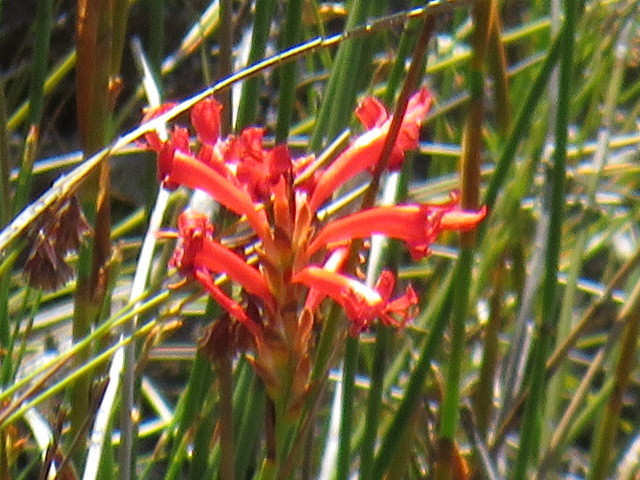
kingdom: Plantae
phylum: Tracheophyta
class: Liliopsida
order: Asparagales
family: Iridaceae
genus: Tritoniopsis
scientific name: Tritoniopsis triticea
